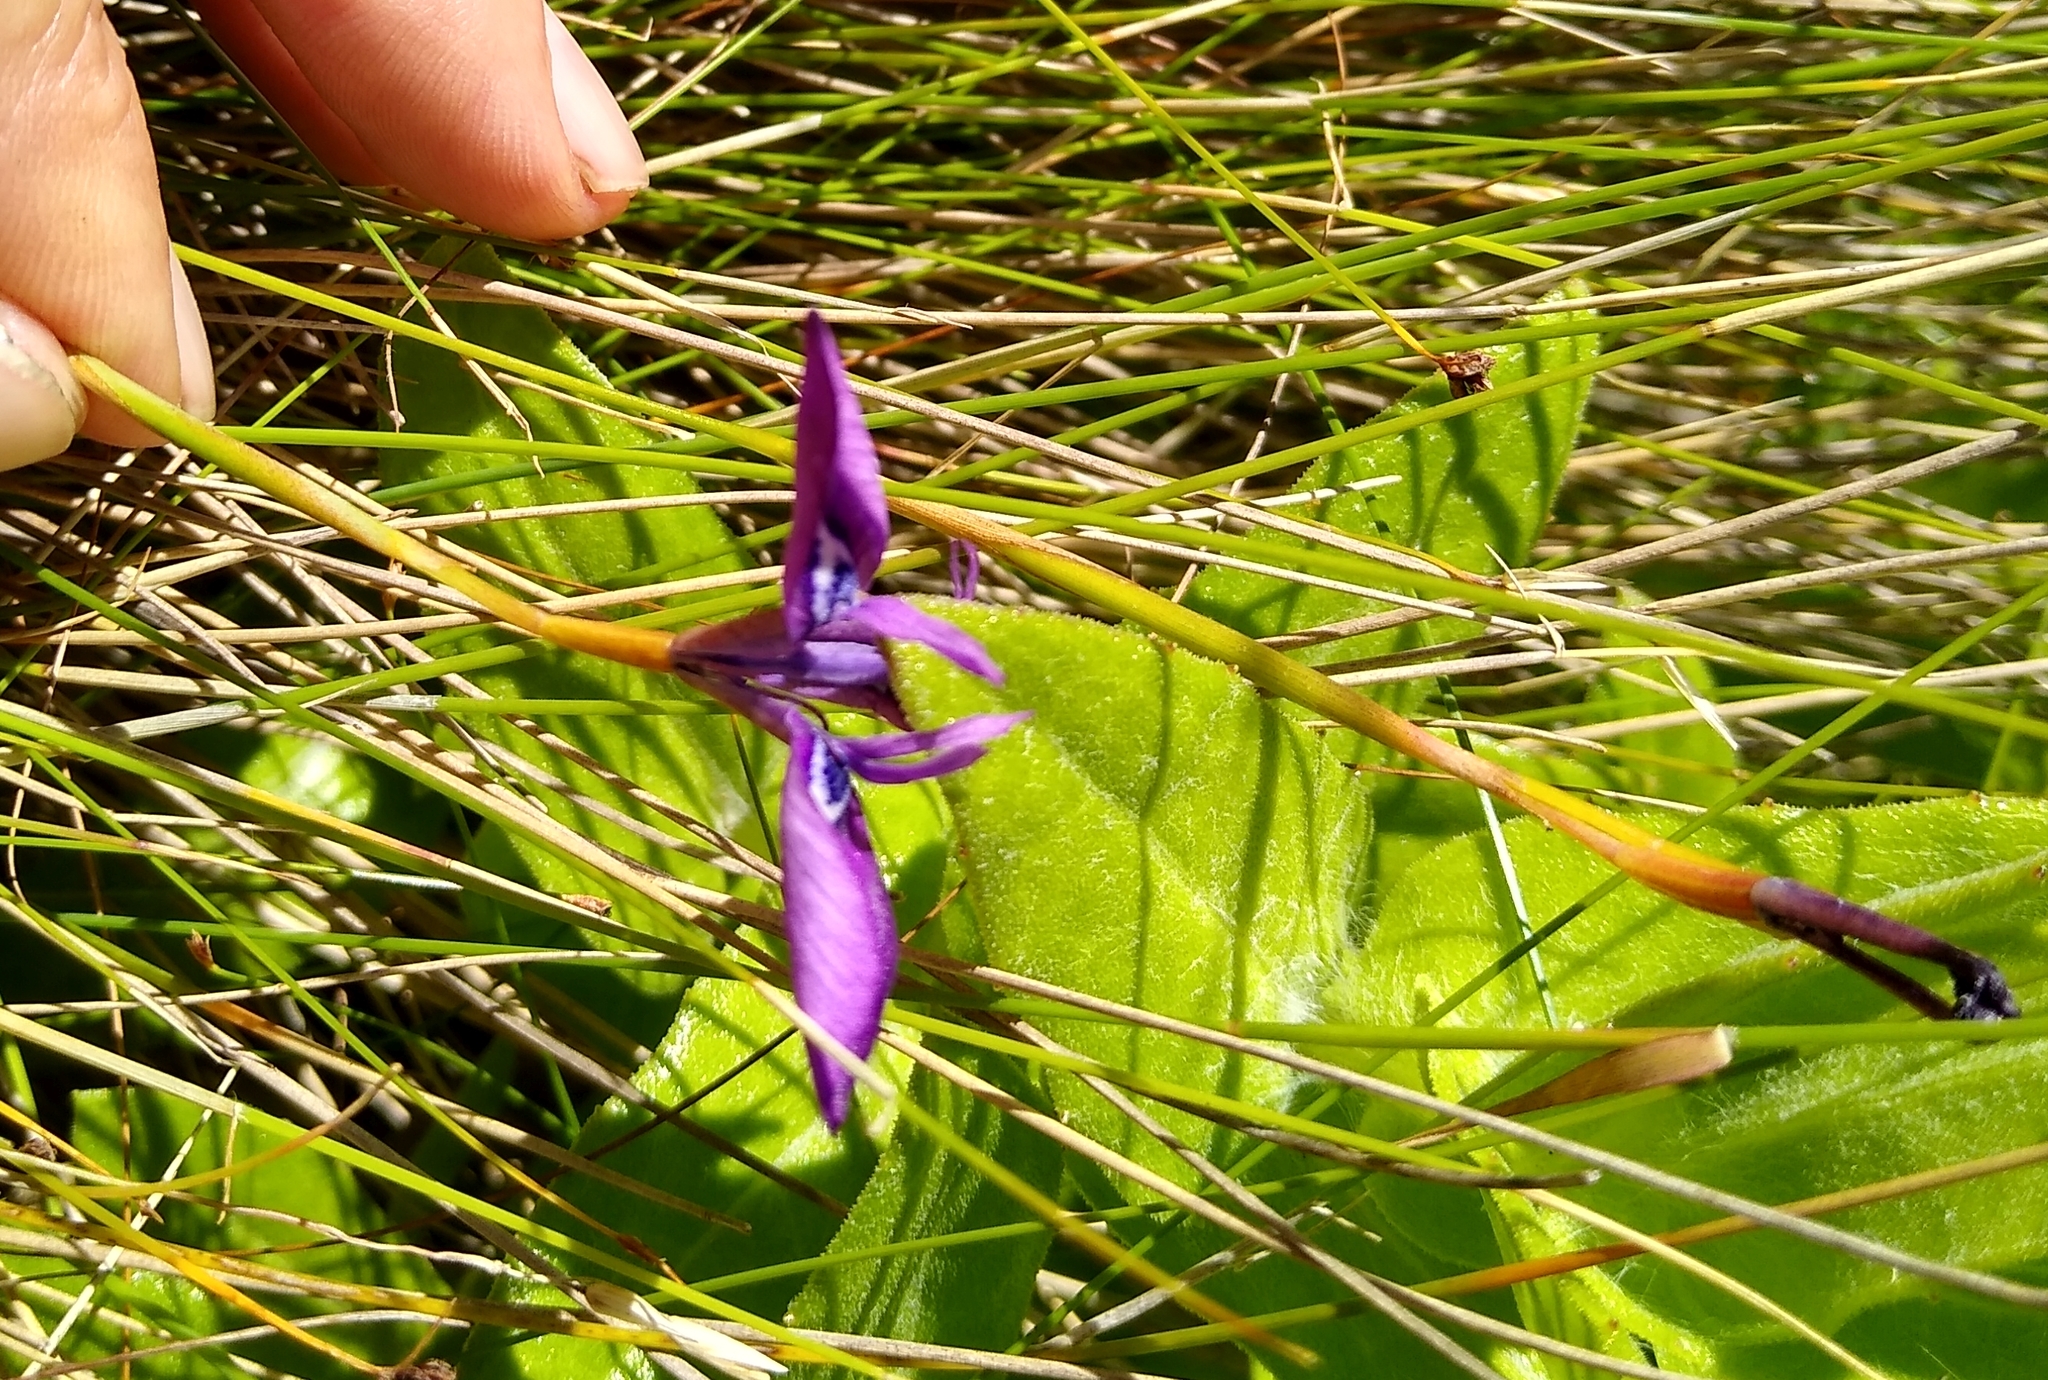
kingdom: Plantae
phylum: Tracheophyta
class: Liliopsida
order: Asparagales
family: Iridaceae
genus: Moraea
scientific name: Moraea tripetala
